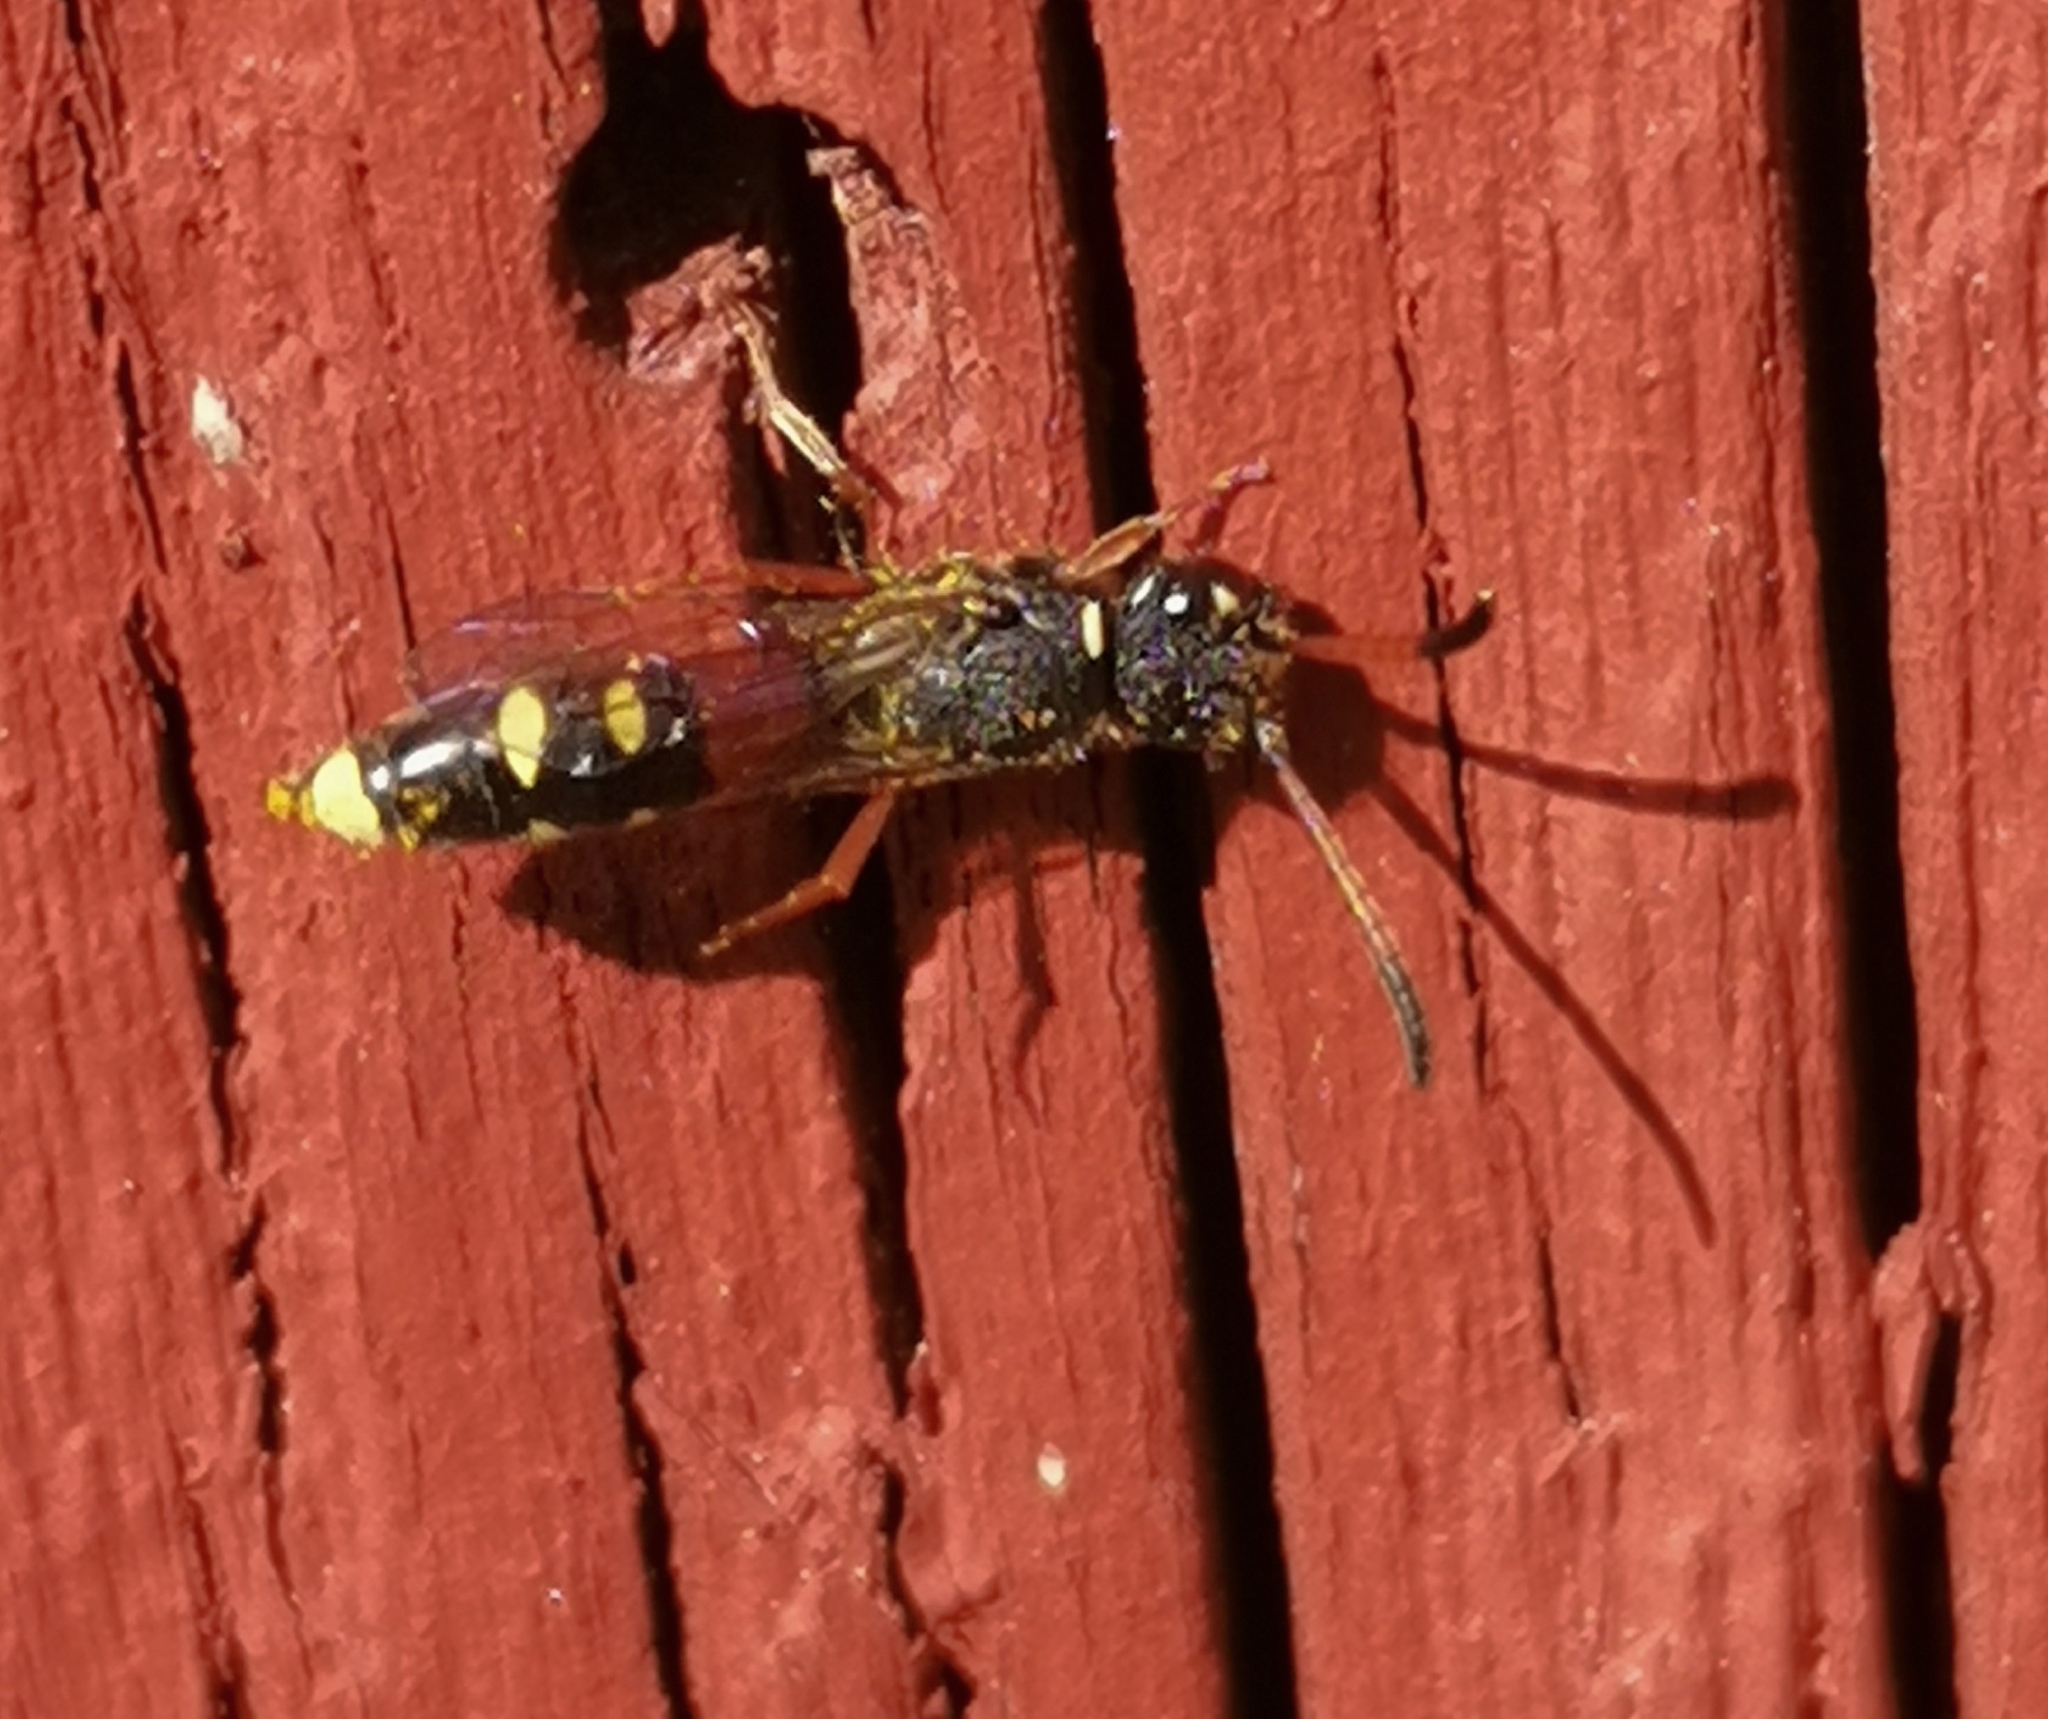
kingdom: Animalia
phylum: Arthropoda
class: Insecta
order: Hymenoptera
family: Sapygidae
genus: Sapyga
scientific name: Sapyga similis
